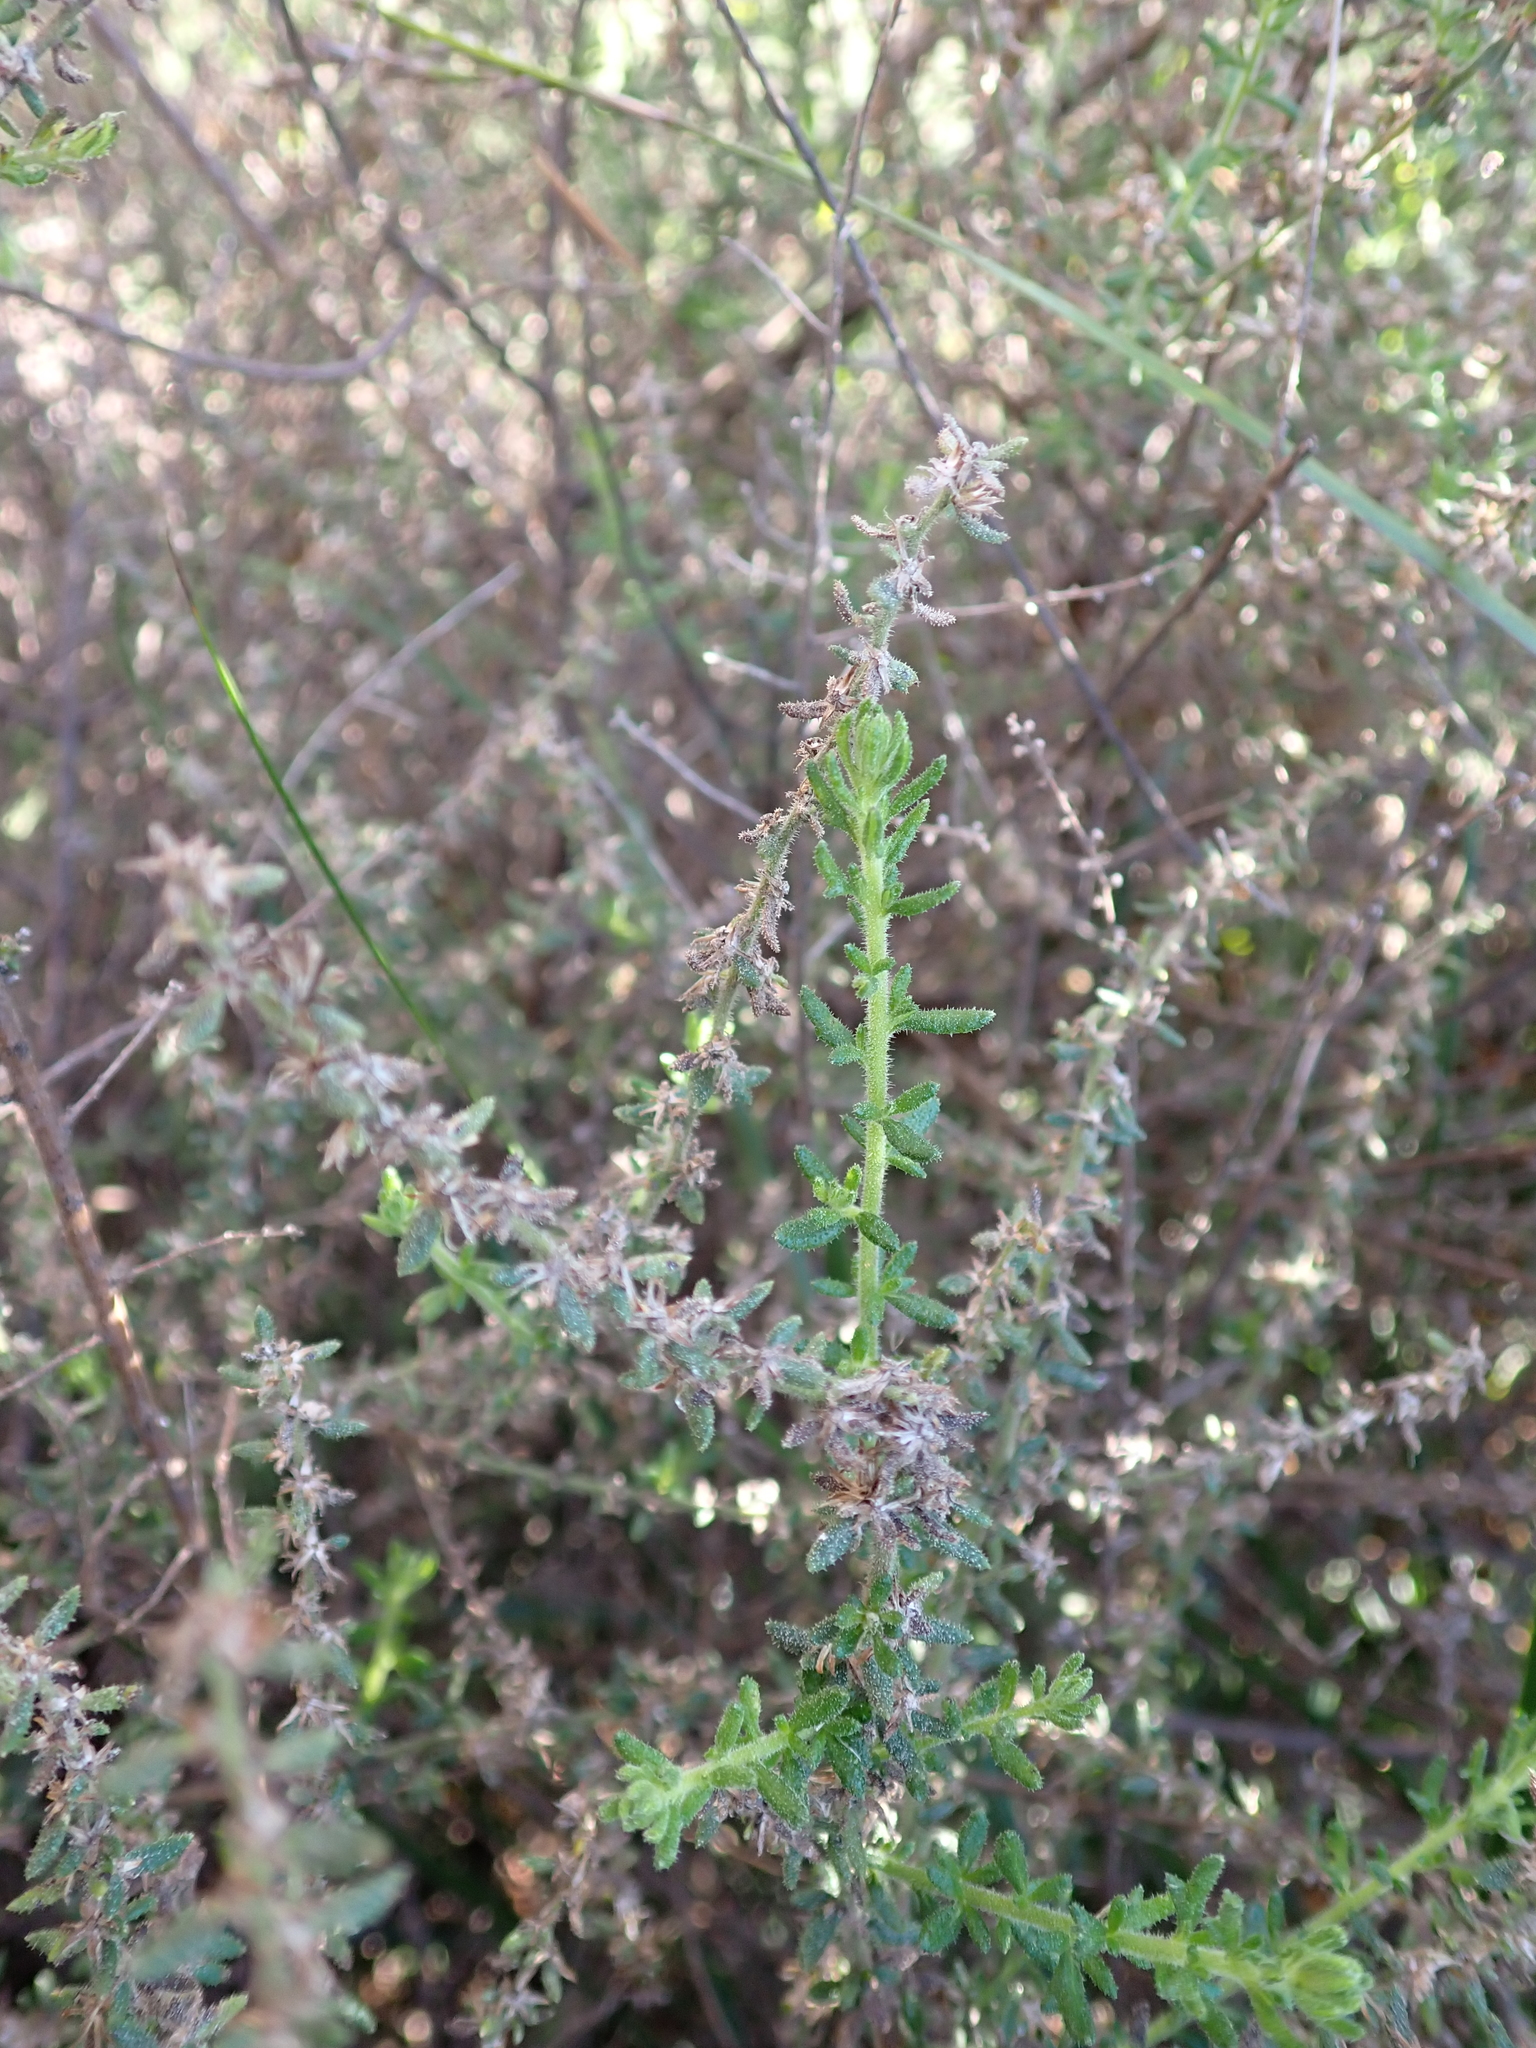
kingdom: Plantae
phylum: Tracheophyta
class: Magnoliopsida
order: Asterales
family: Asteraceae
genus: Olearia
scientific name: Olearia ramulosa
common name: Twiggy daisybush
